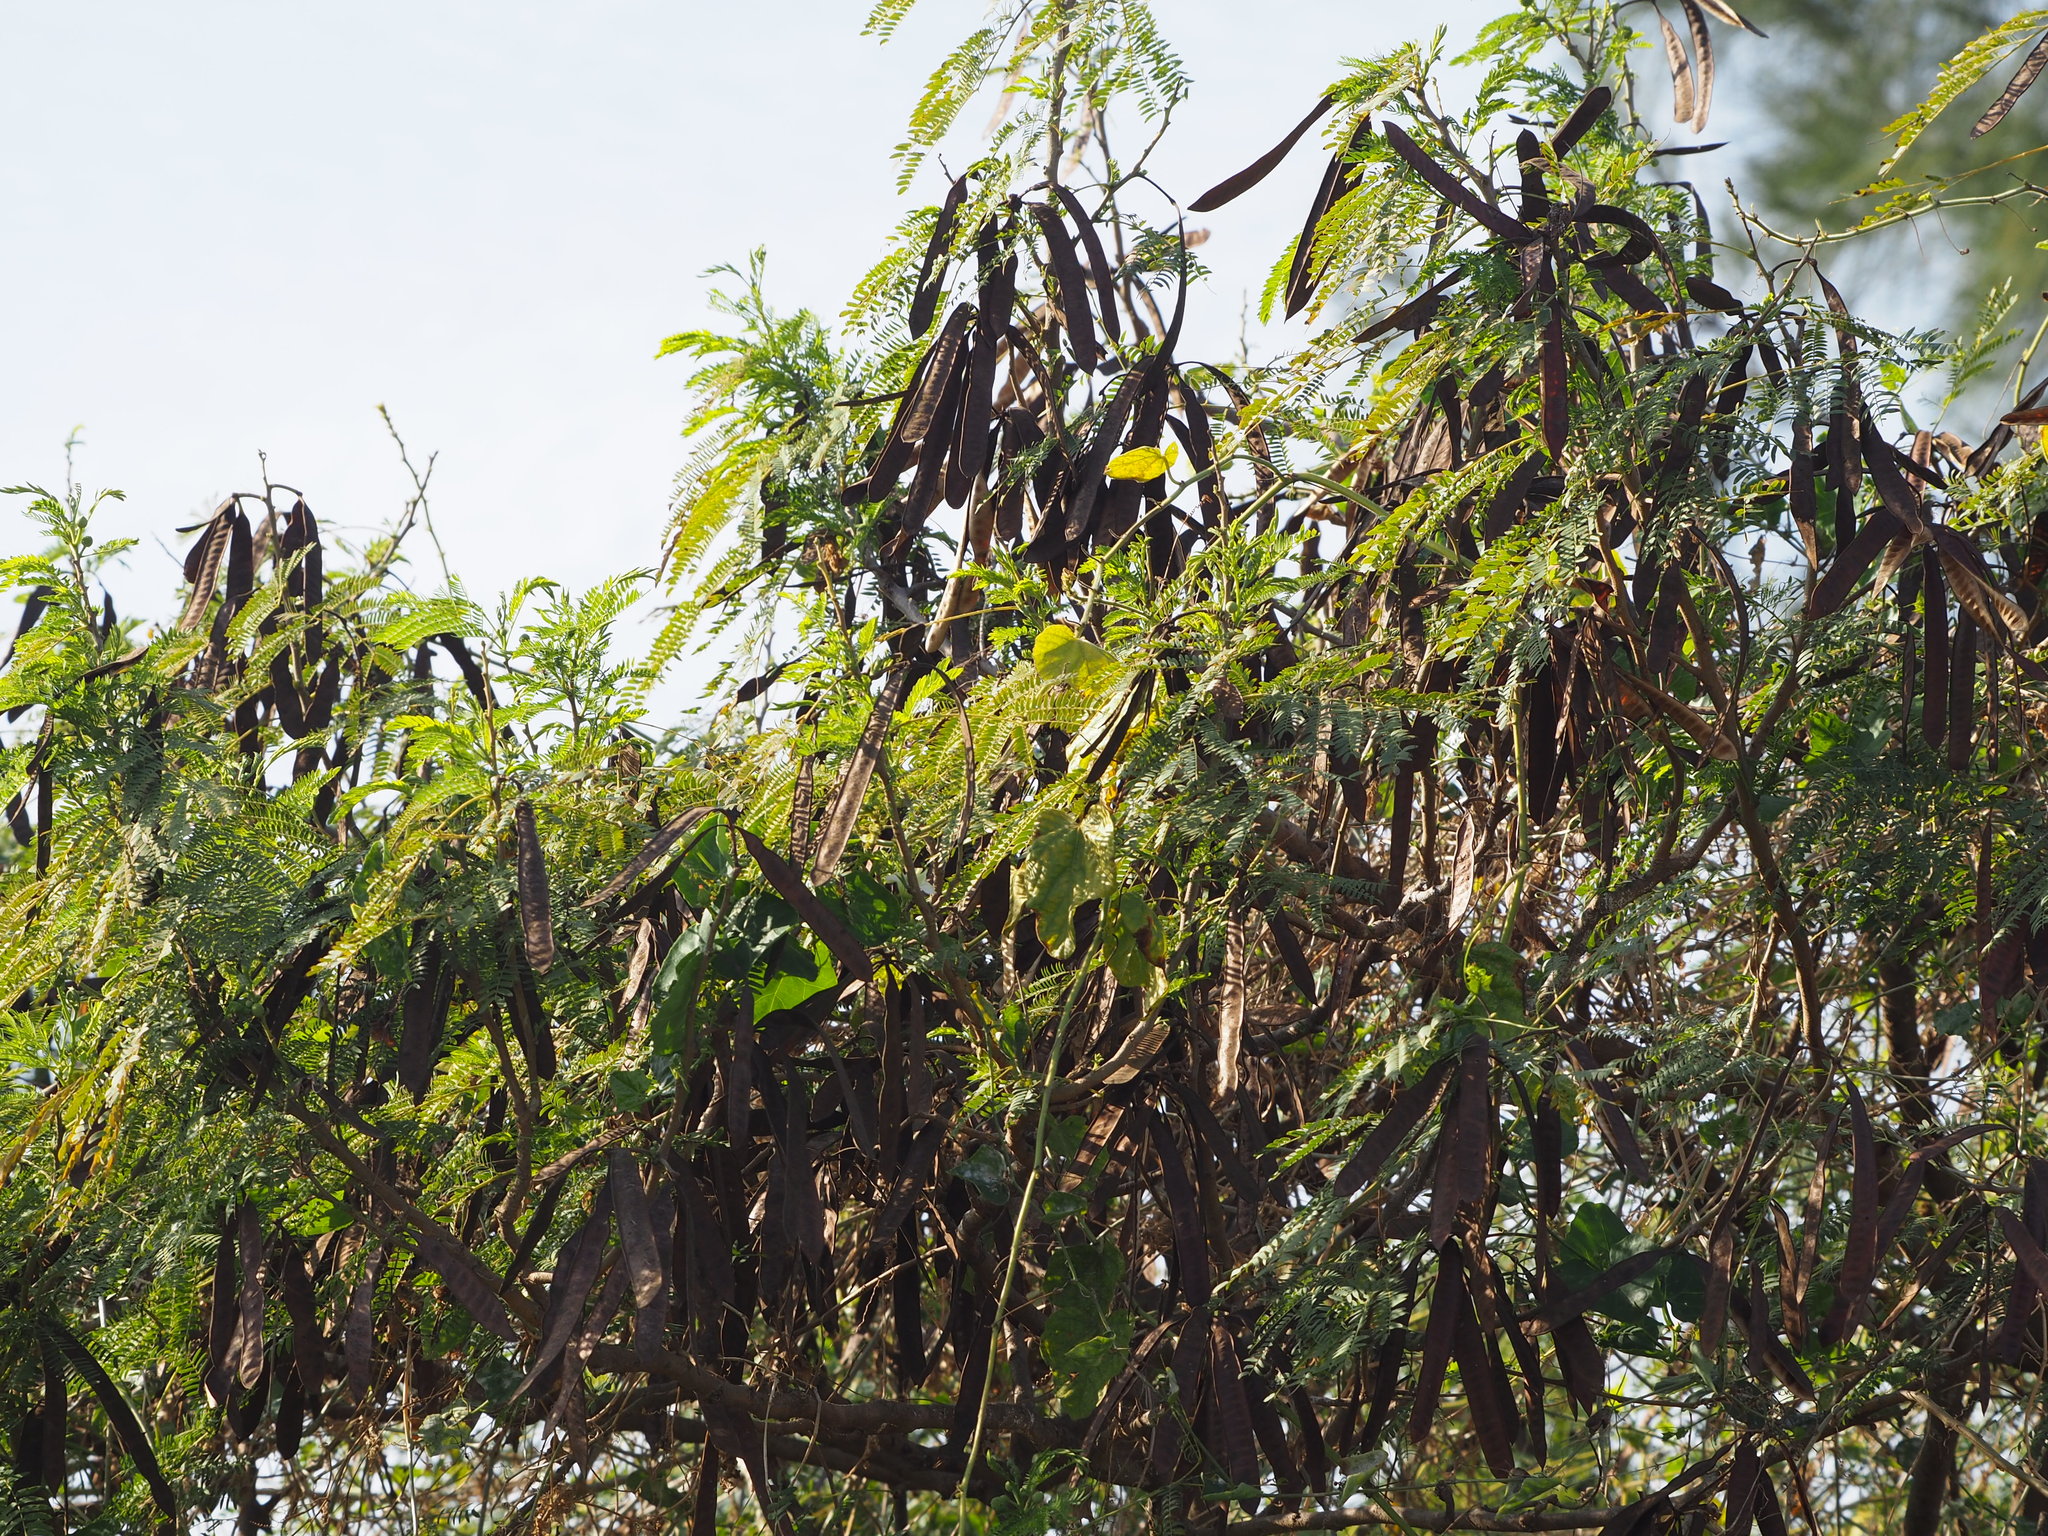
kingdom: Plantae
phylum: Tracheophyta
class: Magnoliopsida
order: Fabales
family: Fabaceae
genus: Leucaena
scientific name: Leucaena leucocephala
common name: White leadtree
